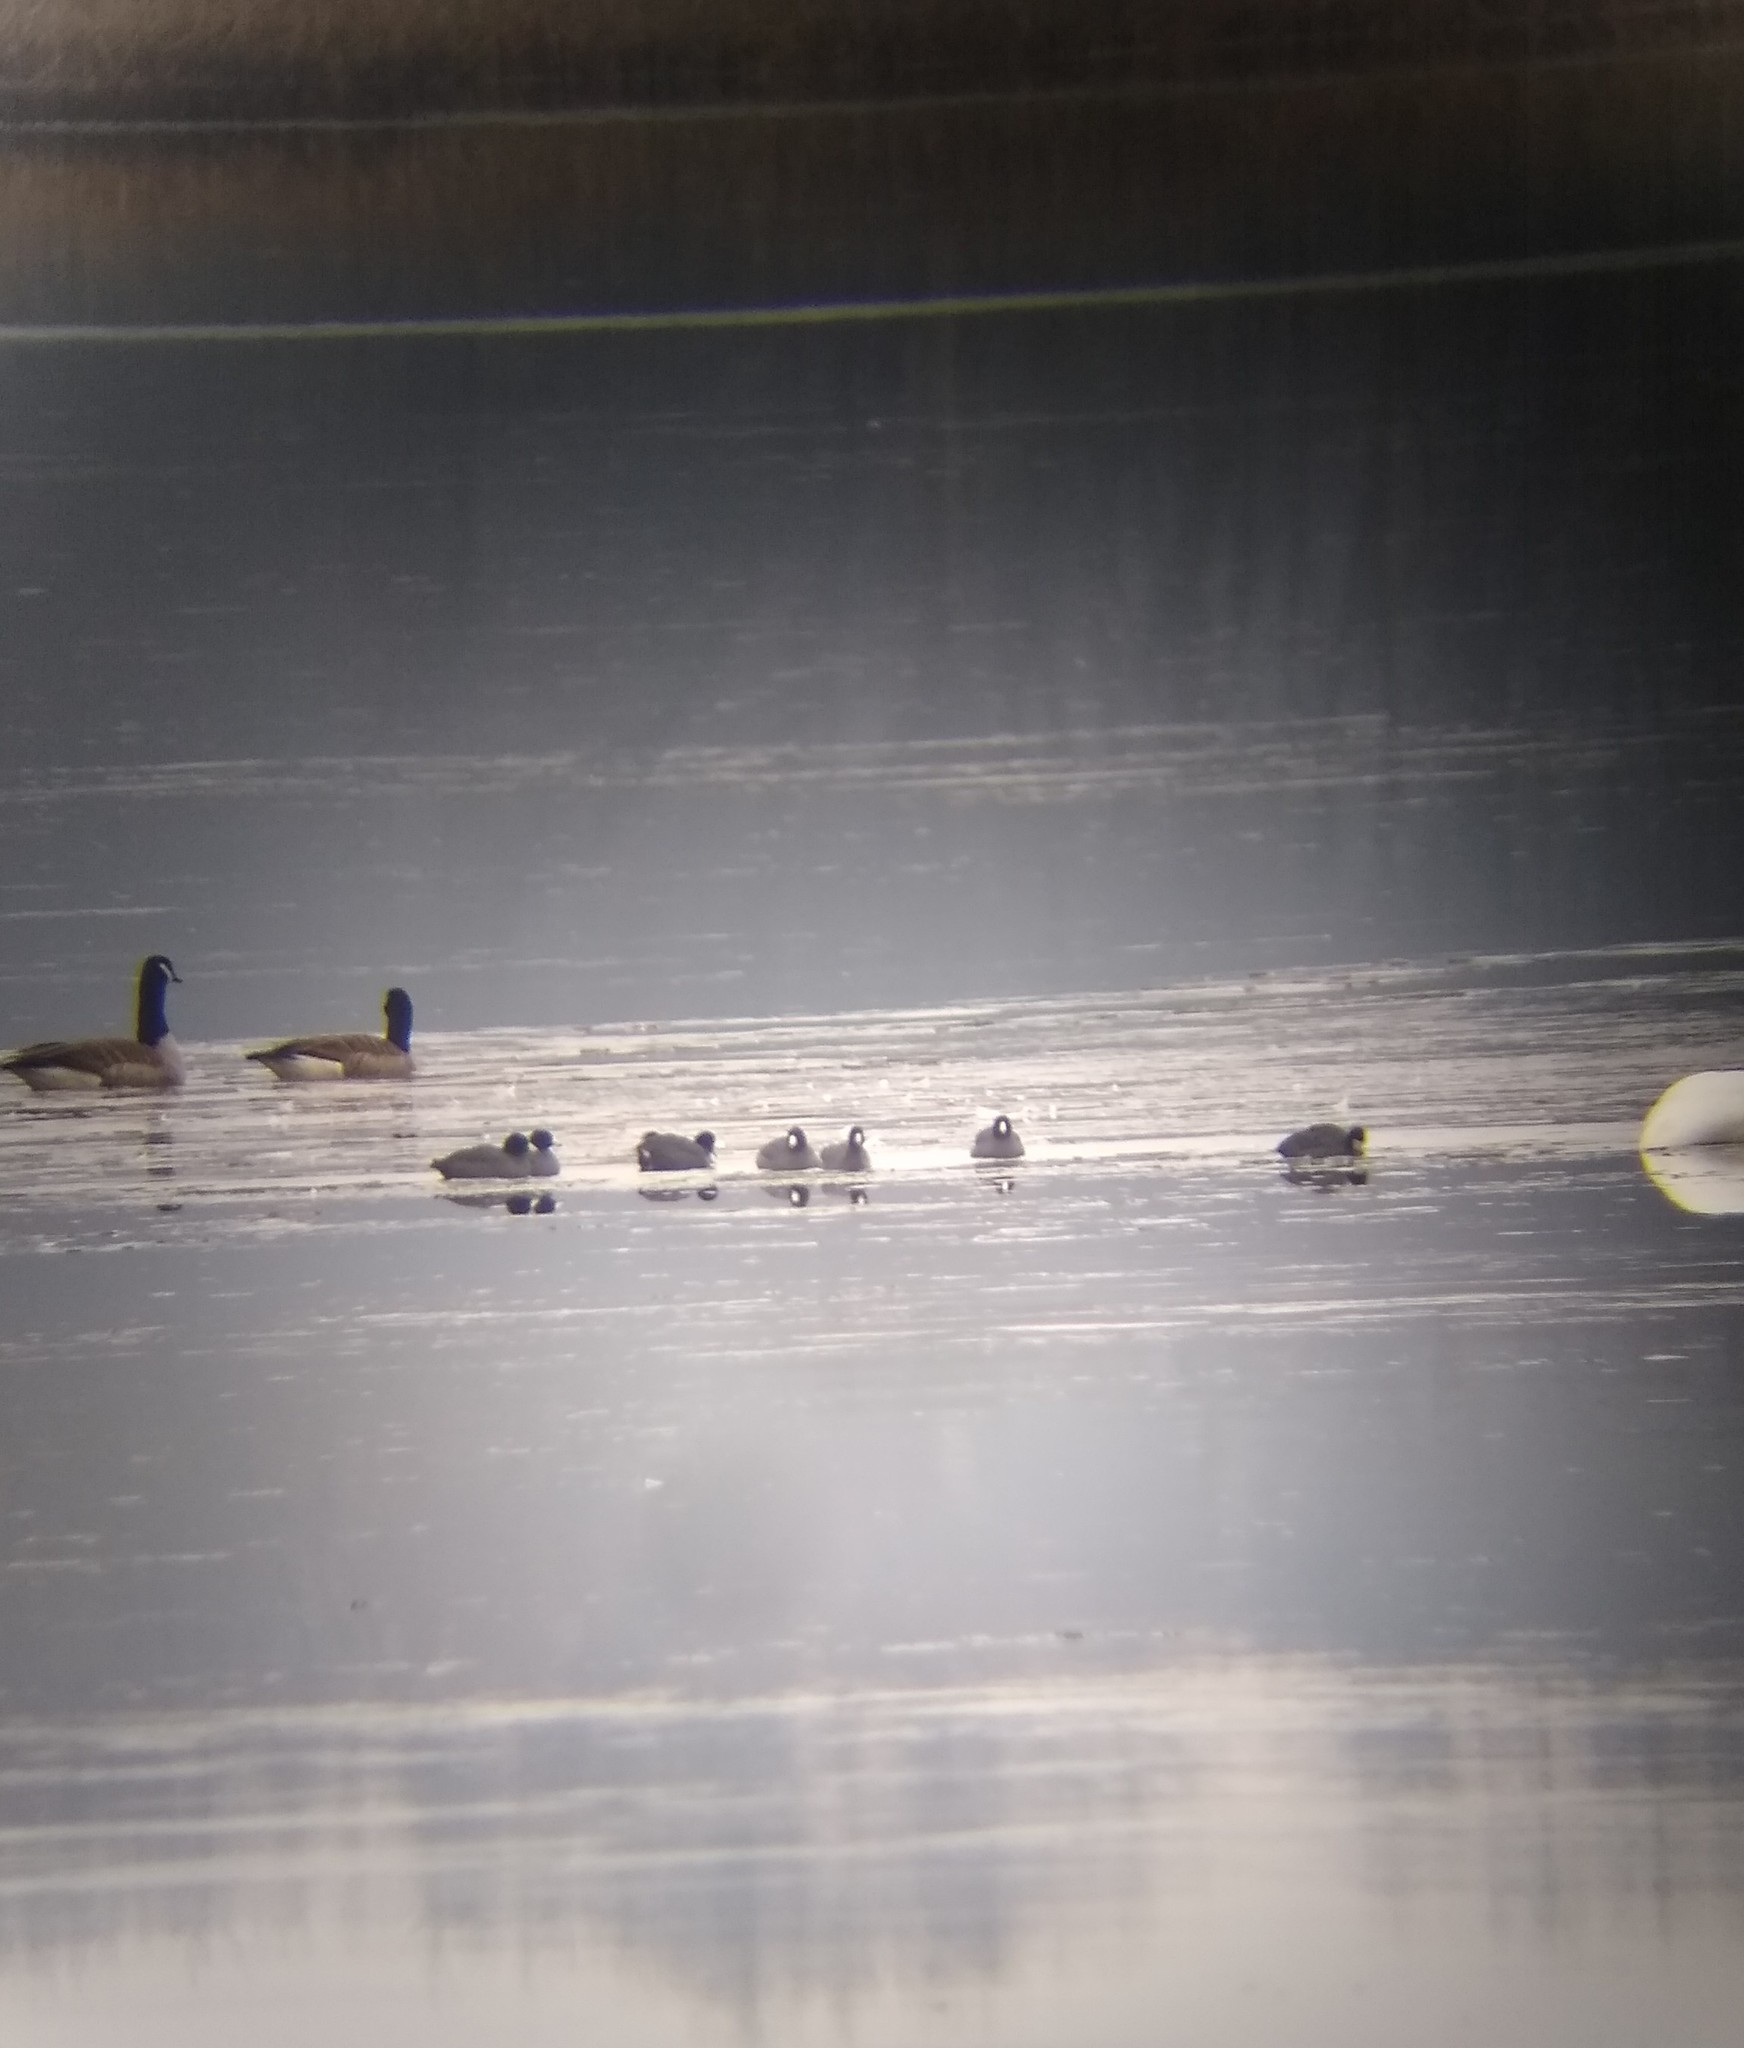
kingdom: Animalia
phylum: Chordata
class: Aves
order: Gruiformes
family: Rallidae
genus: Fulica
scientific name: Fulica americana
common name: American coot
